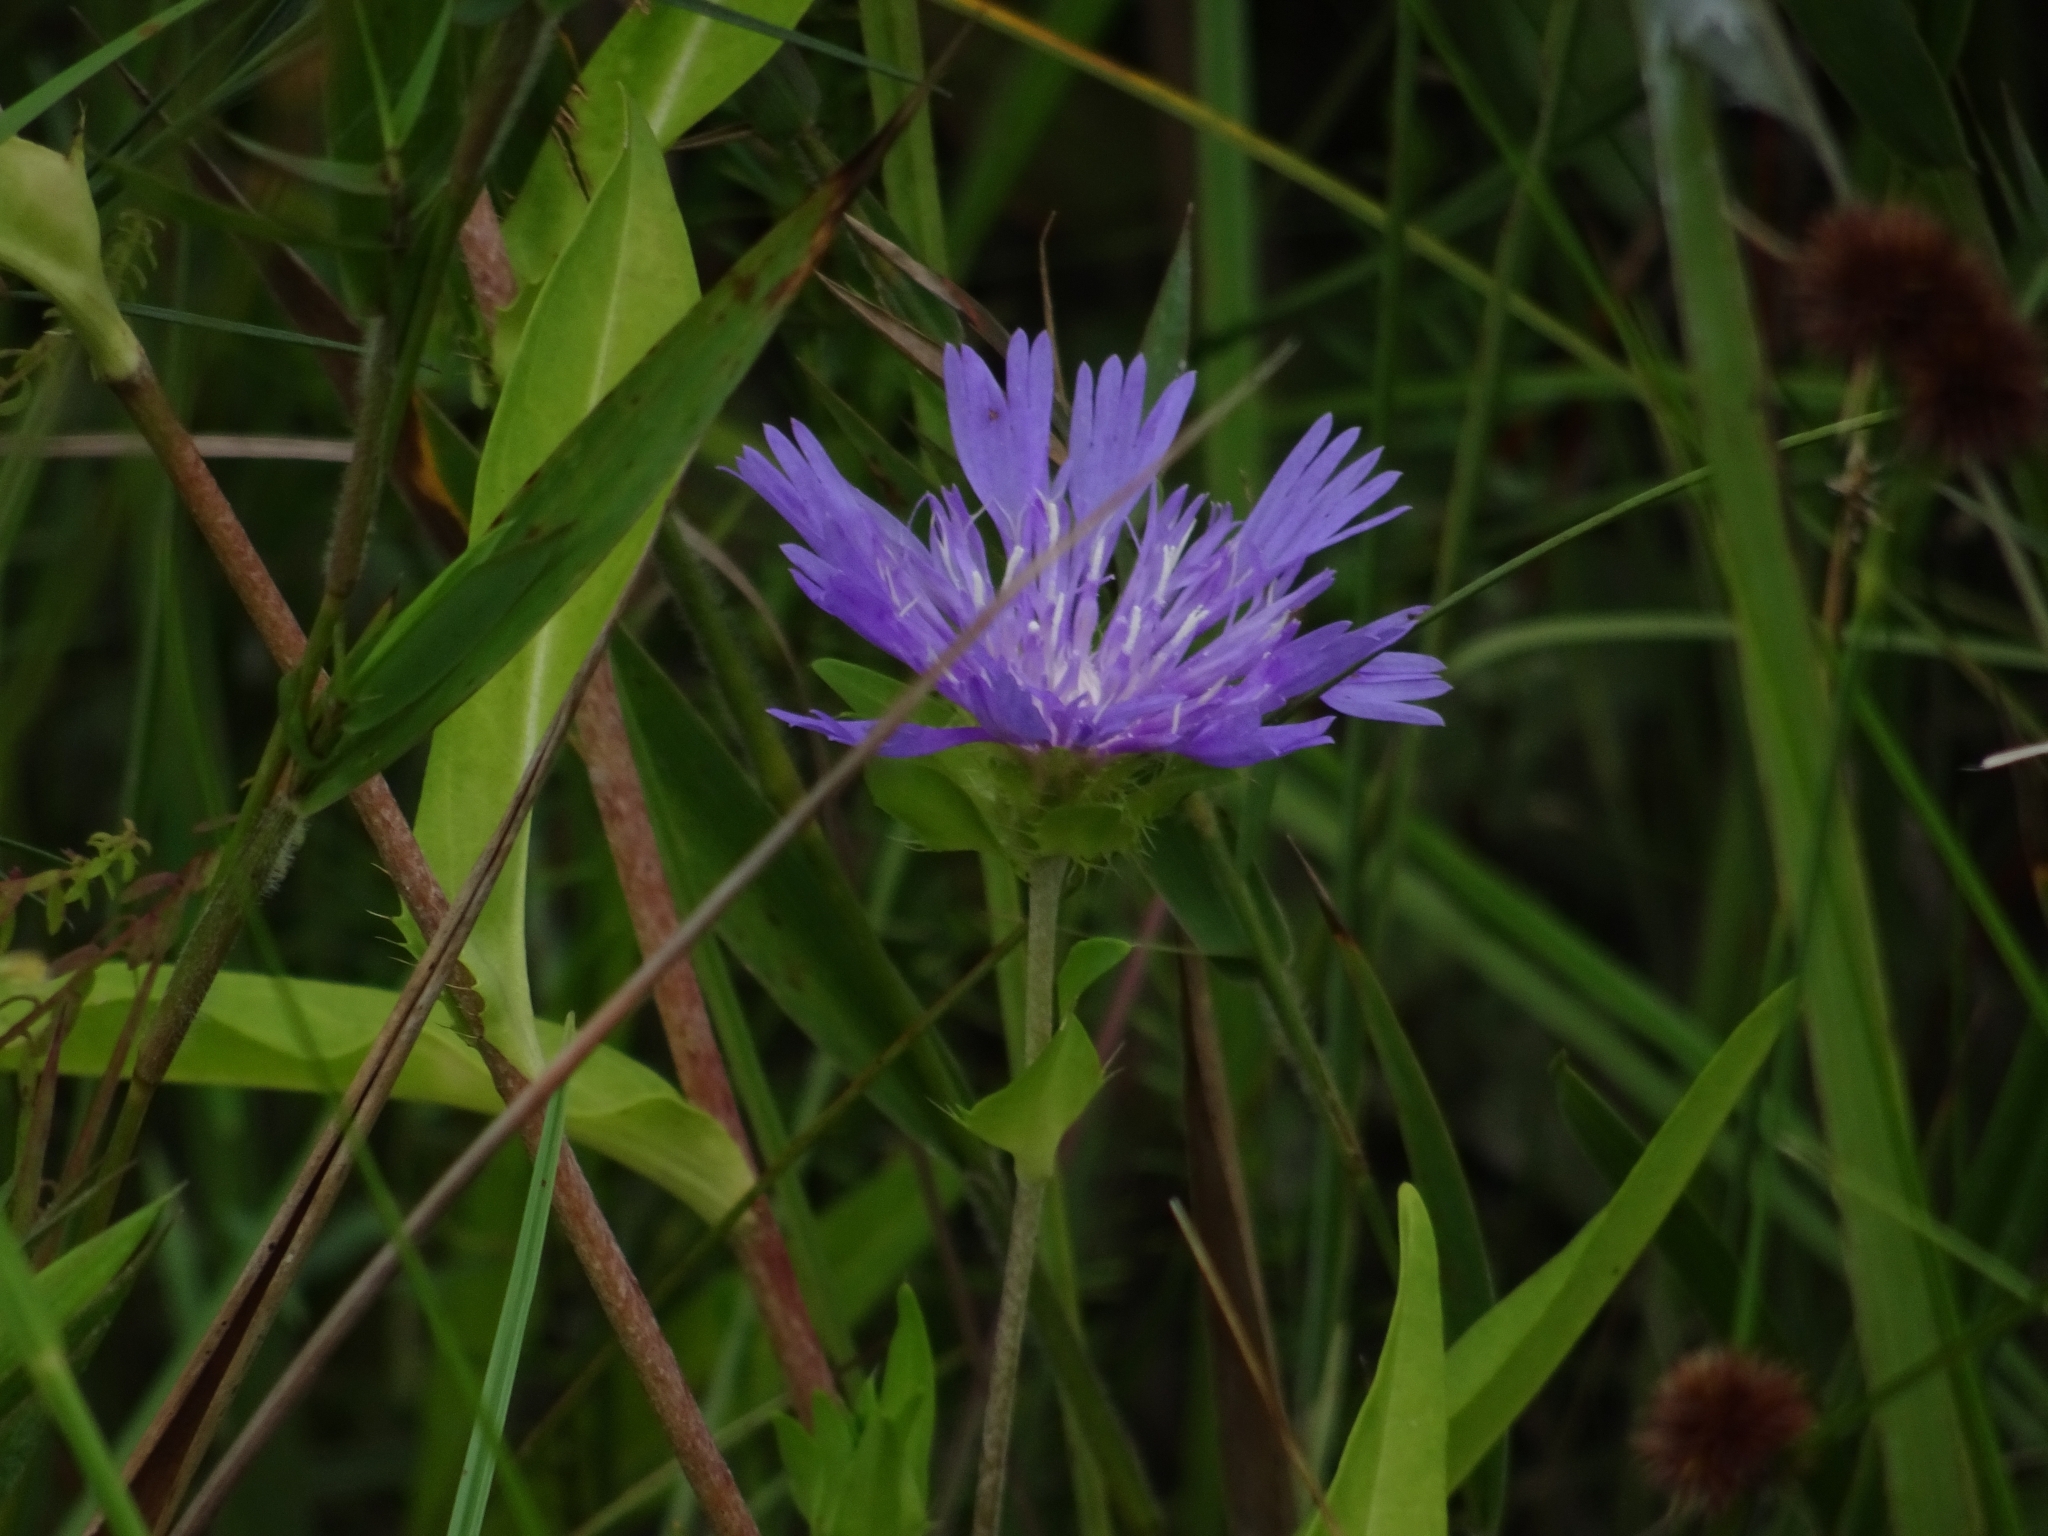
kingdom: Plantae
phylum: Tracheophyta
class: Magnoliopsida
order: Asterales
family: Asteraceae
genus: Stokesia
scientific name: Stokesia laevis
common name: Stokes'-aster
